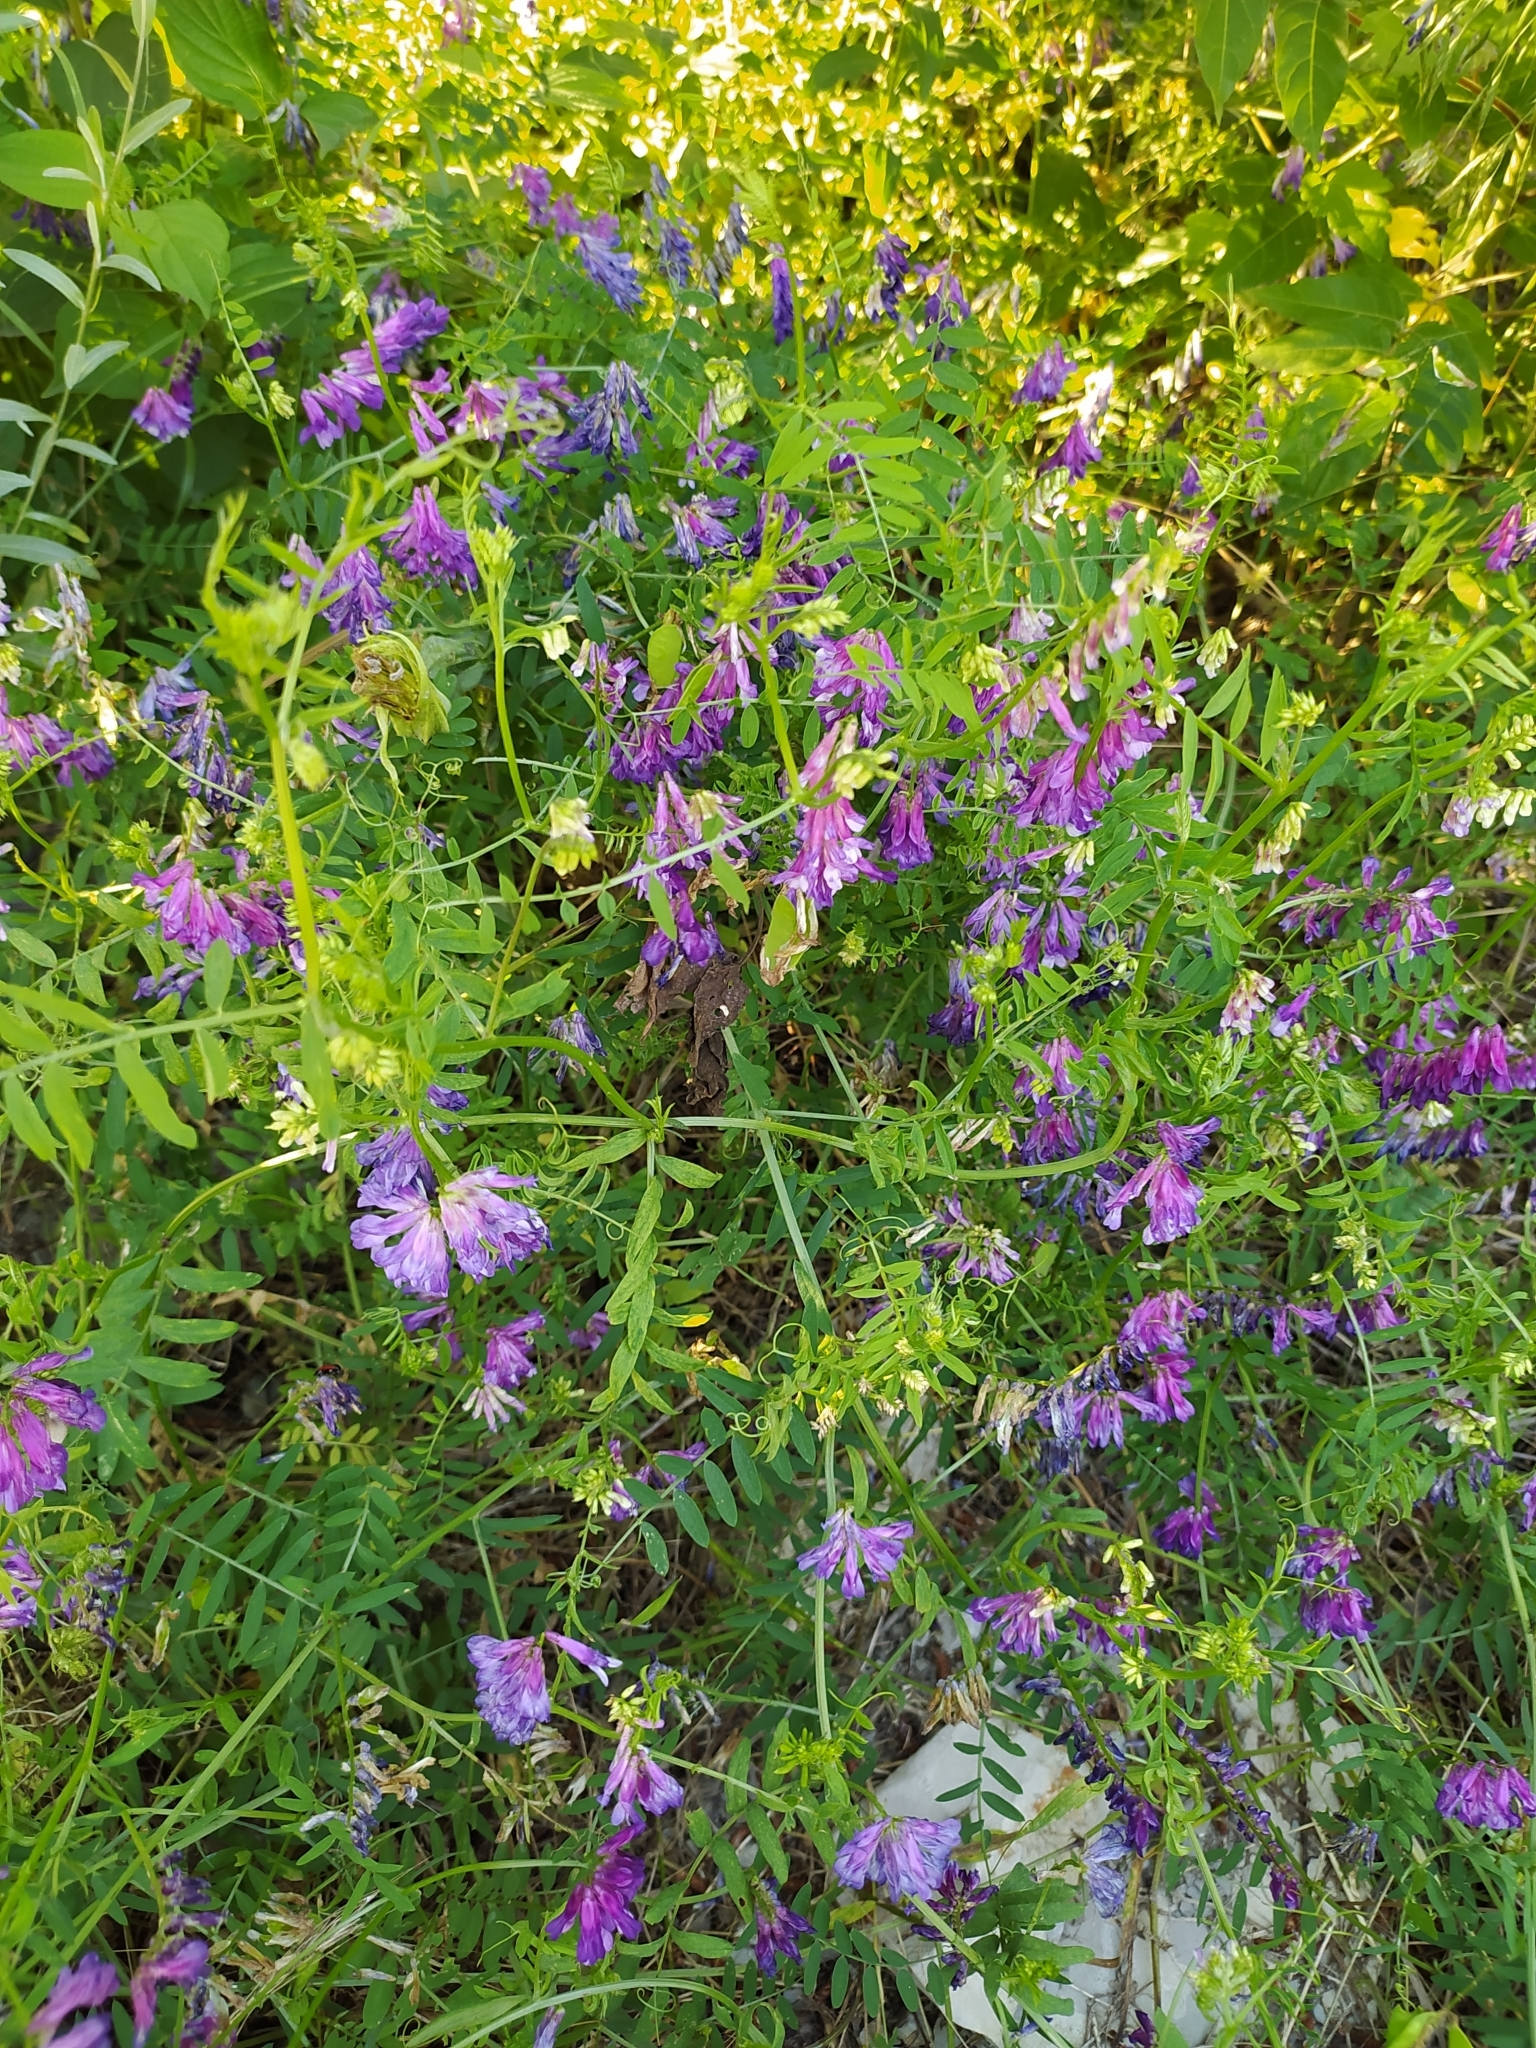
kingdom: Plantae
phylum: Tracheophyta
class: Magnoliopsida
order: Fabales
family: Fabaceae
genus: Vicia
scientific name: Vicia villosa
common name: Fodder vetch
